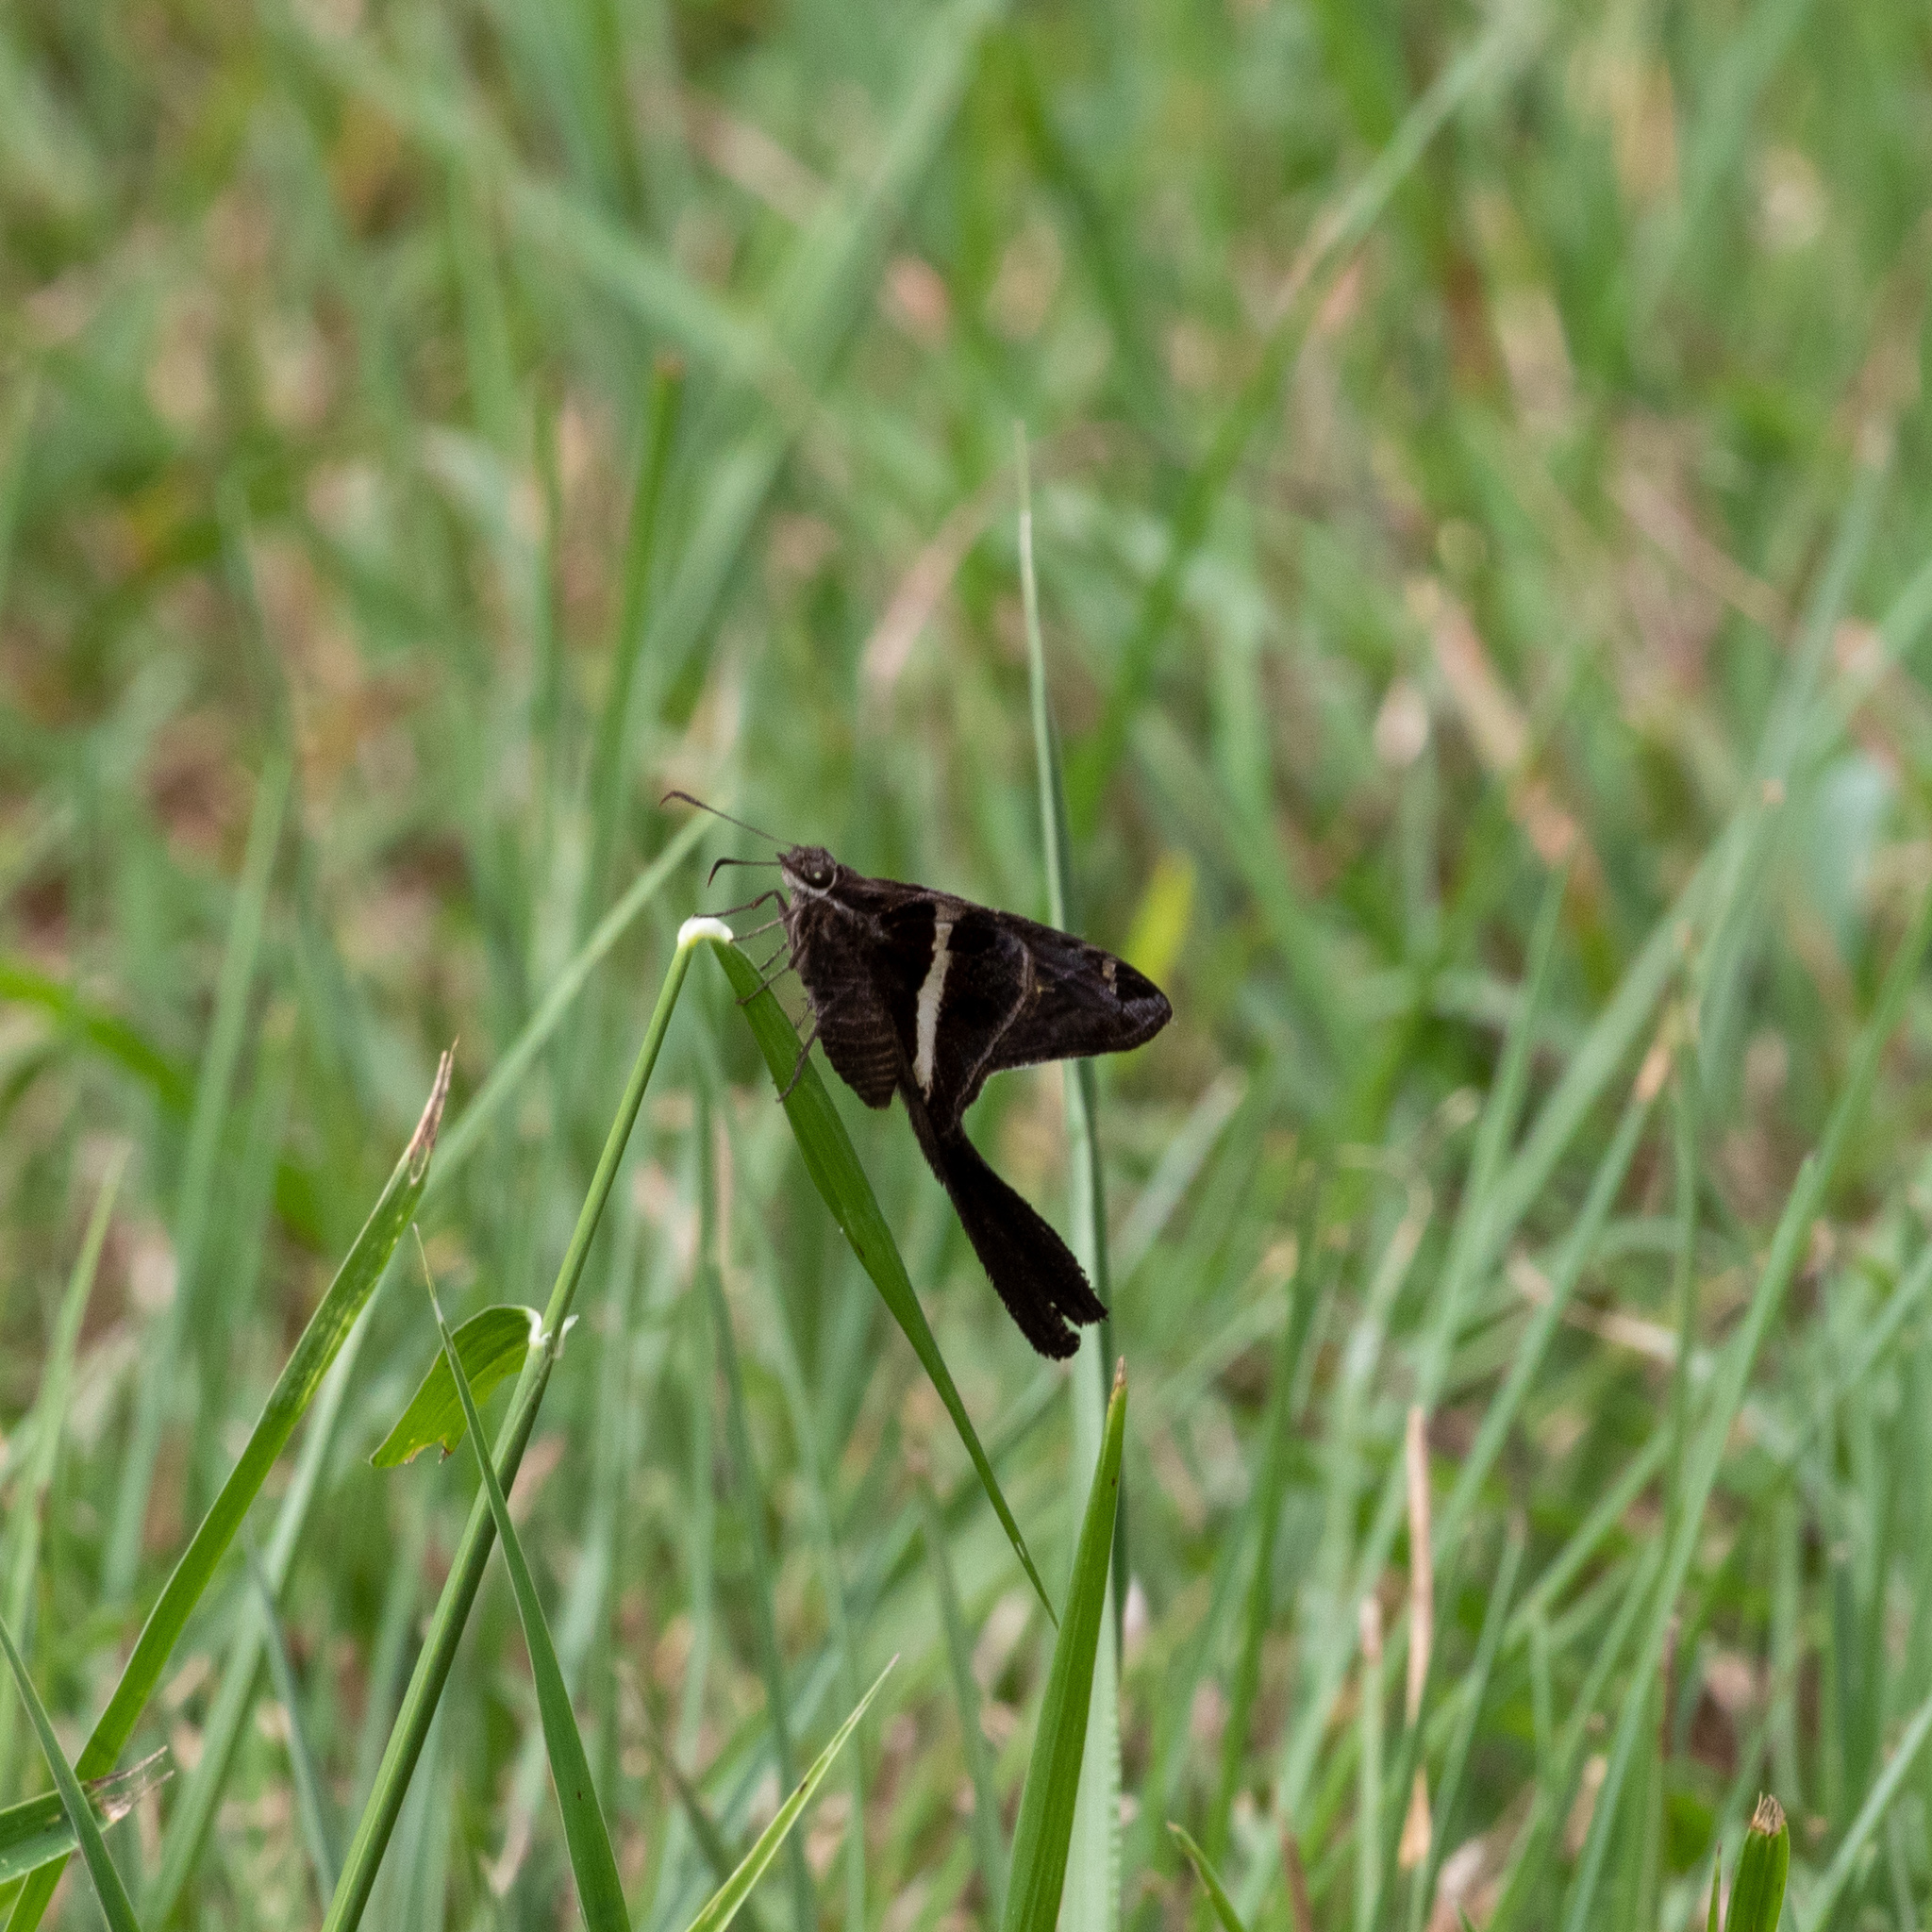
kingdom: Animalia
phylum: Arthropoda
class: Insecta
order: Lepidoptera
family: Hesperiidae
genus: Chioides
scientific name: Chioides catillus
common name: Silverbanded skipper
